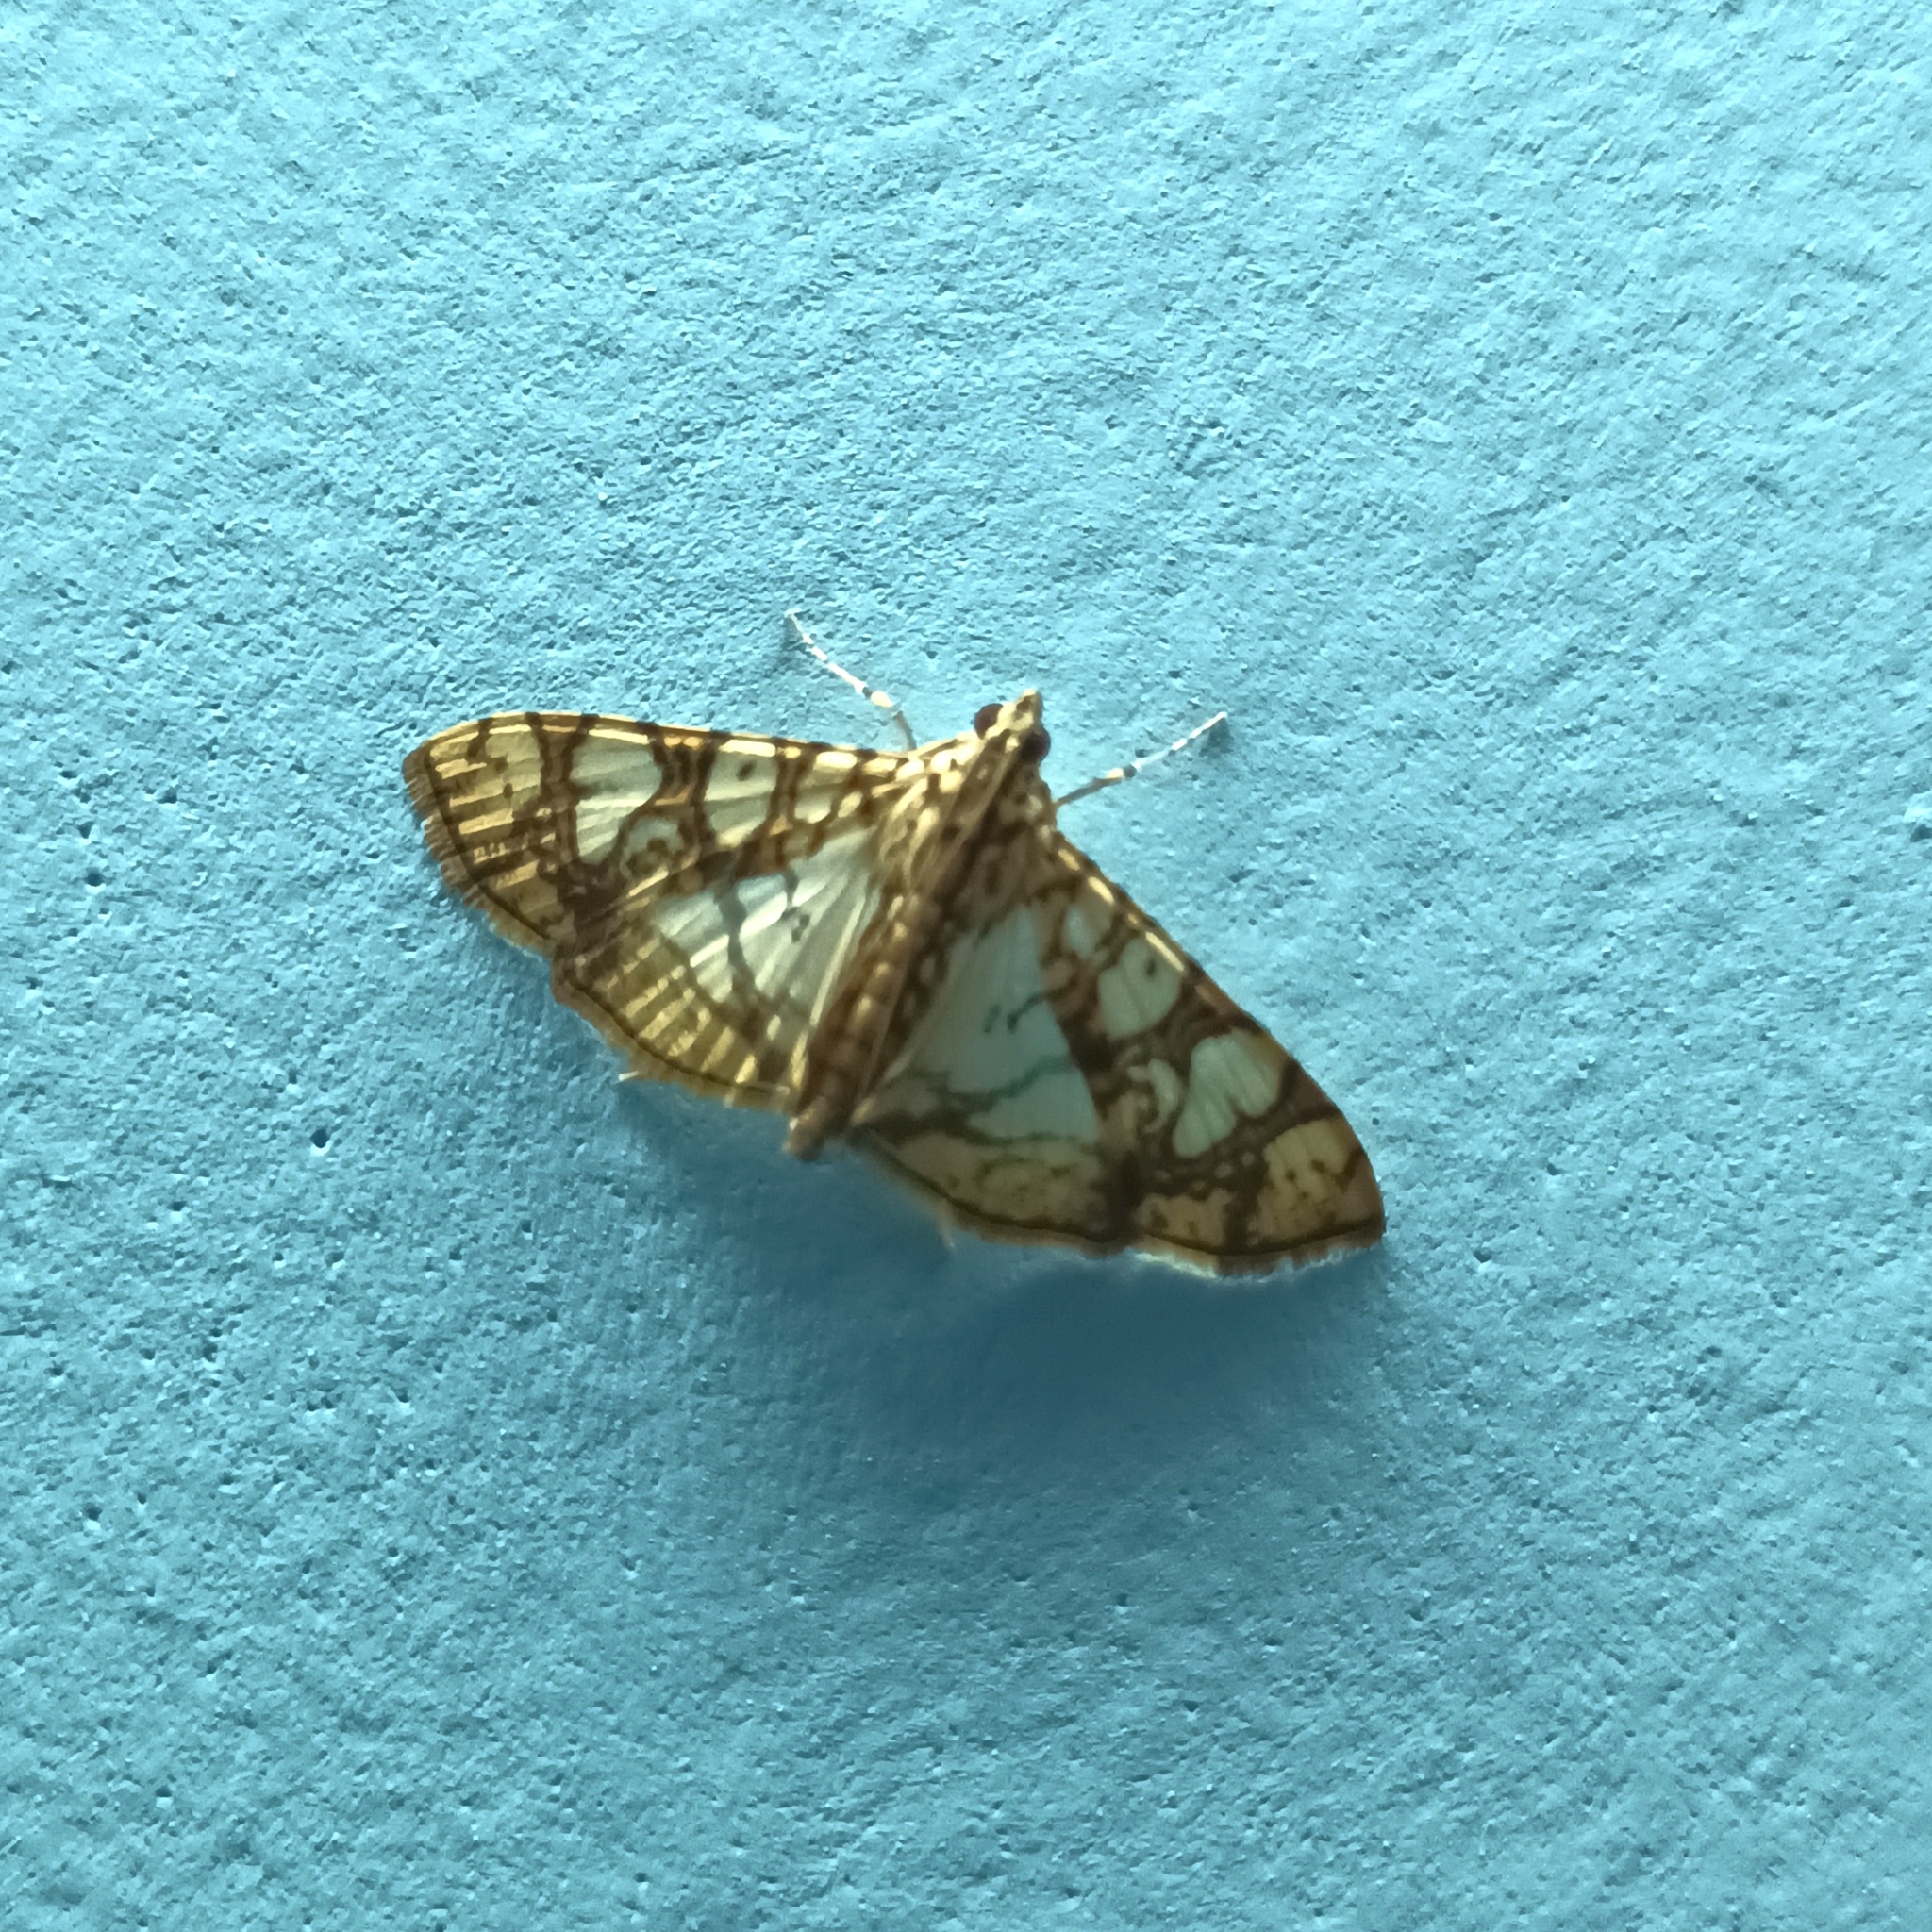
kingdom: Animalia
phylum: Arthropoda
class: Insecta
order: Lepidoptera
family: Crambidae
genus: Glyphodes
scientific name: Glyphodes caesalis
